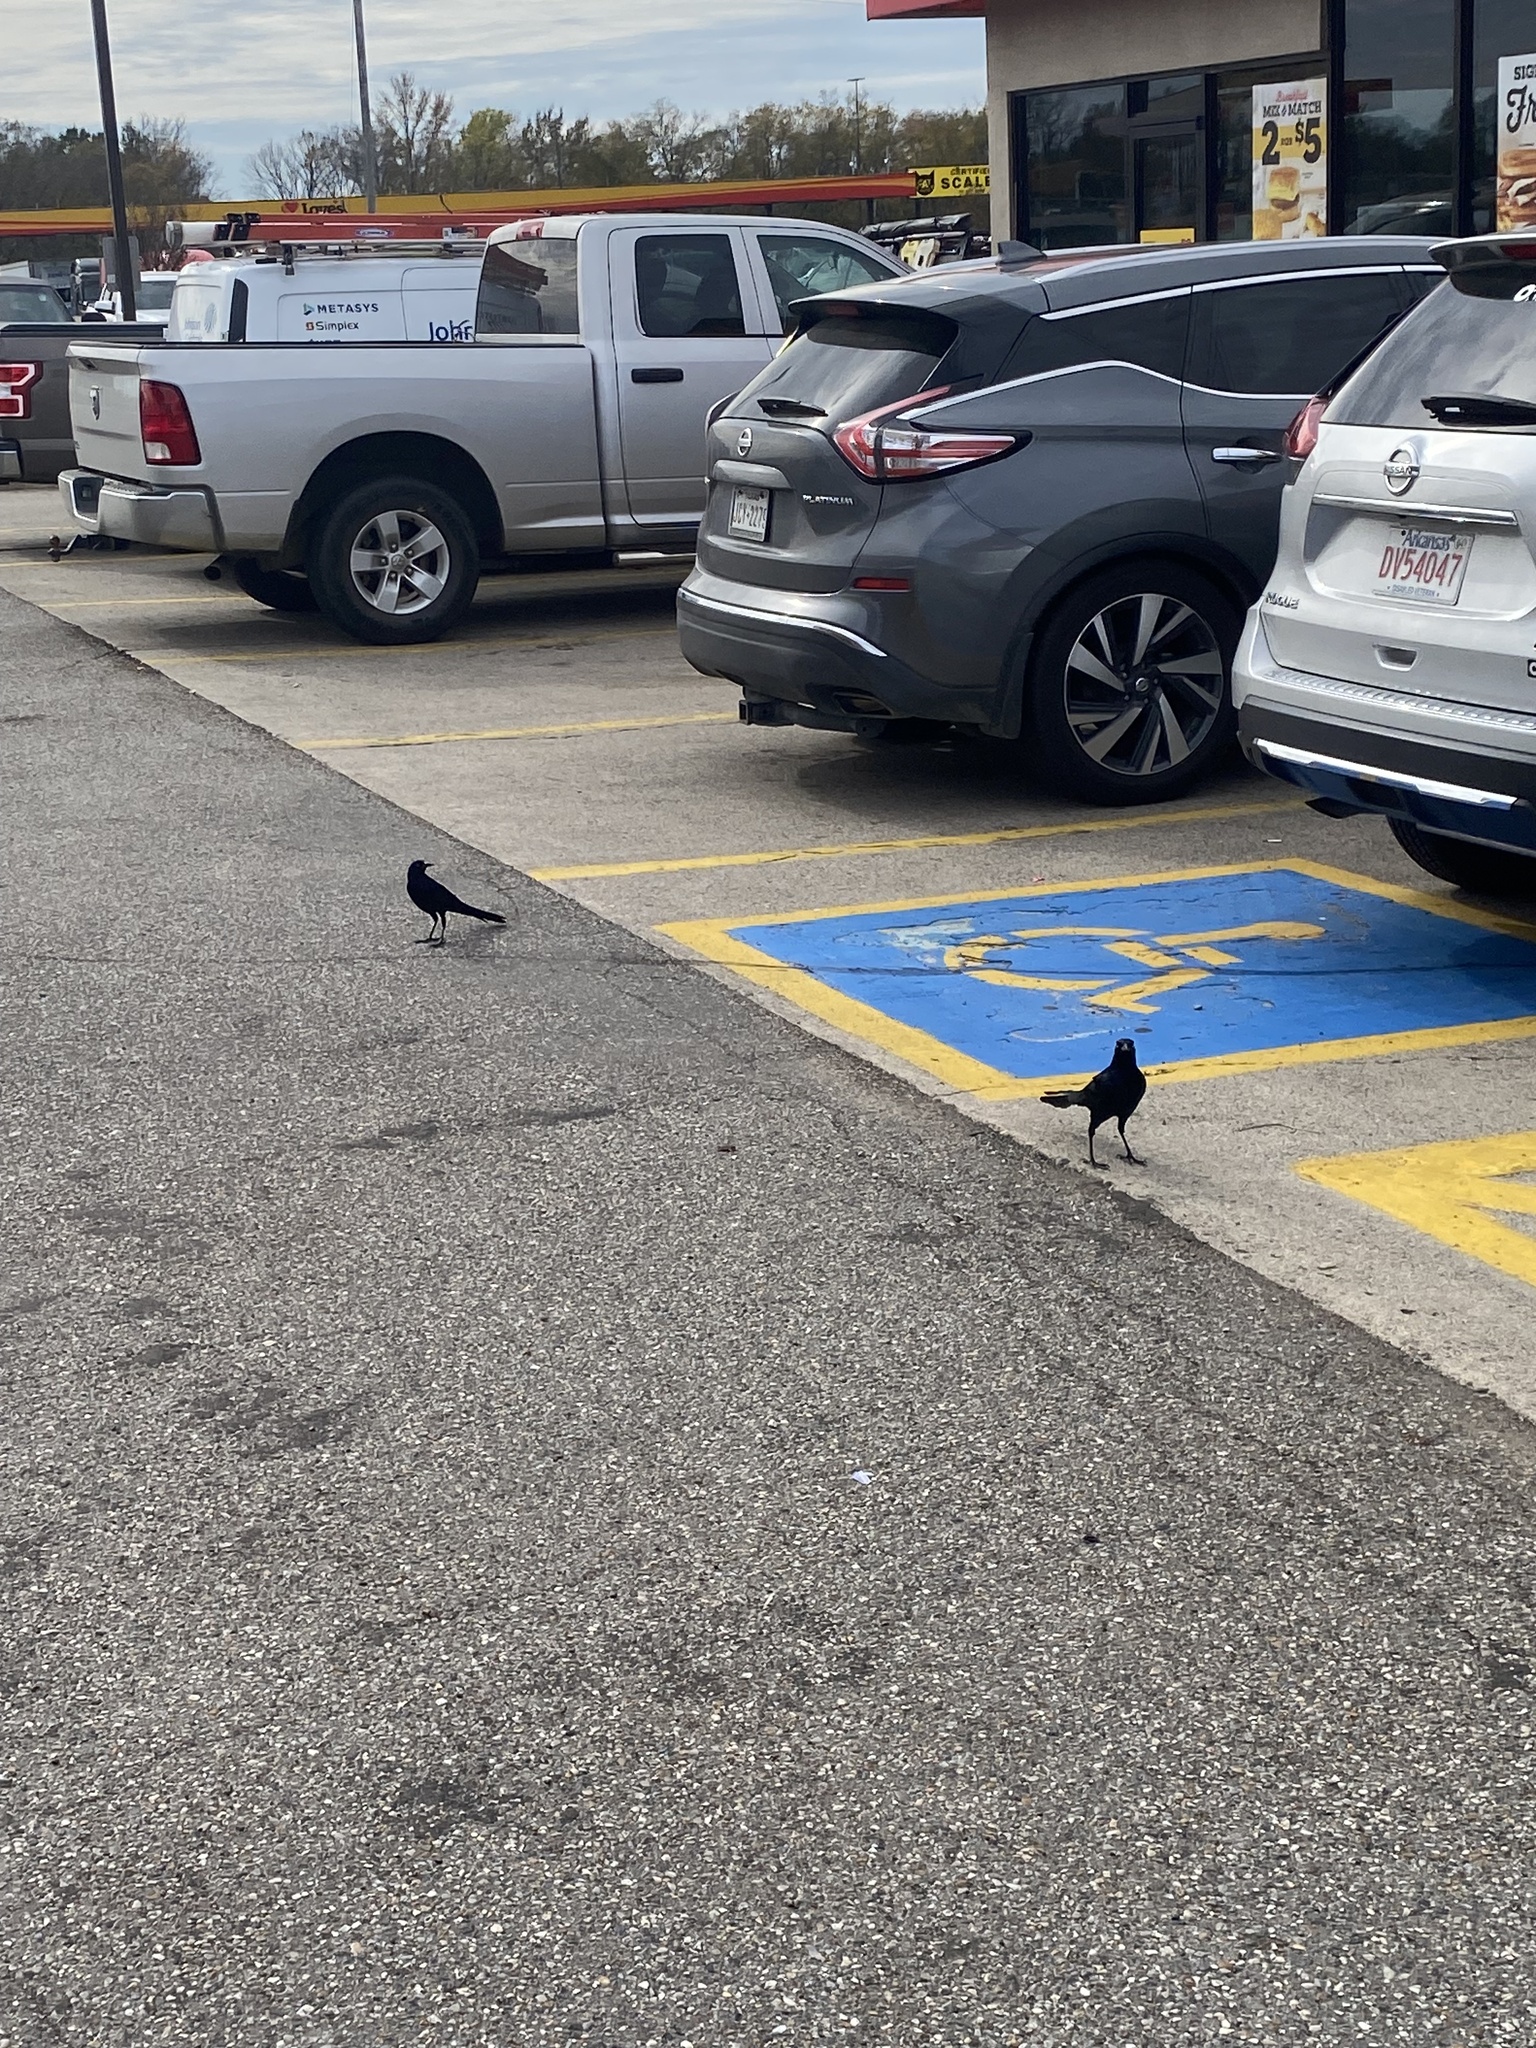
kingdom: Animalia
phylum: Chordata
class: Aves
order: Passeriformes
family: Icteridae
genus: Quiscalus
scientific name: Quiscalus mexicanus
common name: Great-tailed grackle
